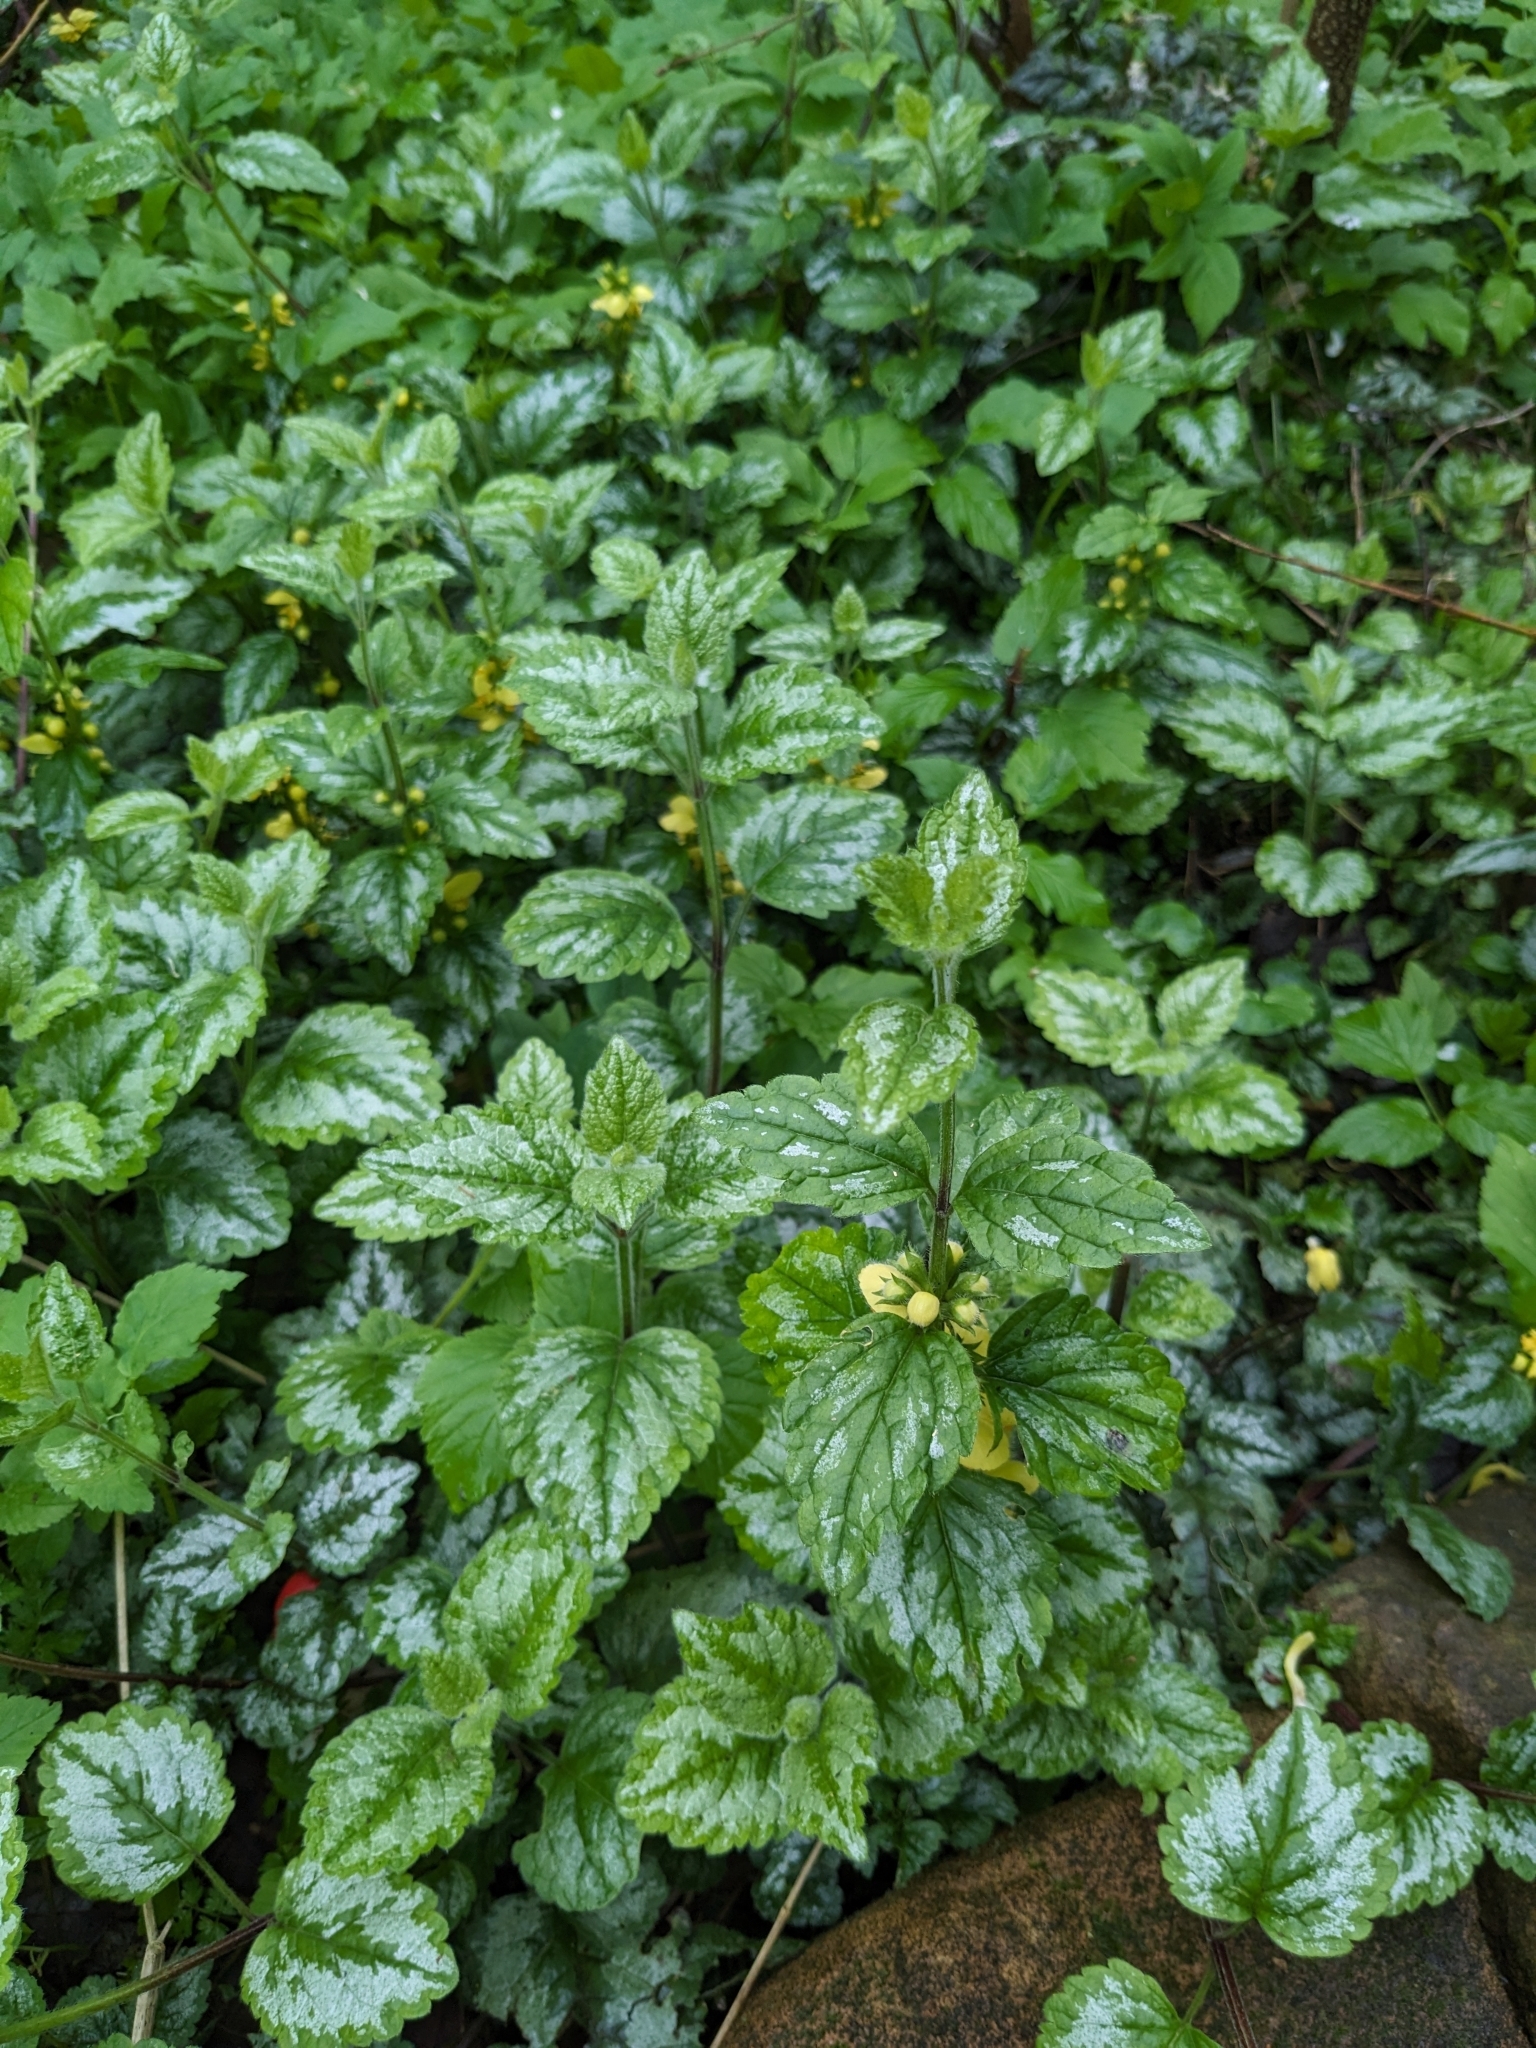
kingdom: Plantae
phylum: Tracheophyta
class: Magnoliopsida
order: Lamiales
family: Lamiaceae
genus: Lamium
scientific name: Lamium galeobdolon
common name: Yellow archangel
